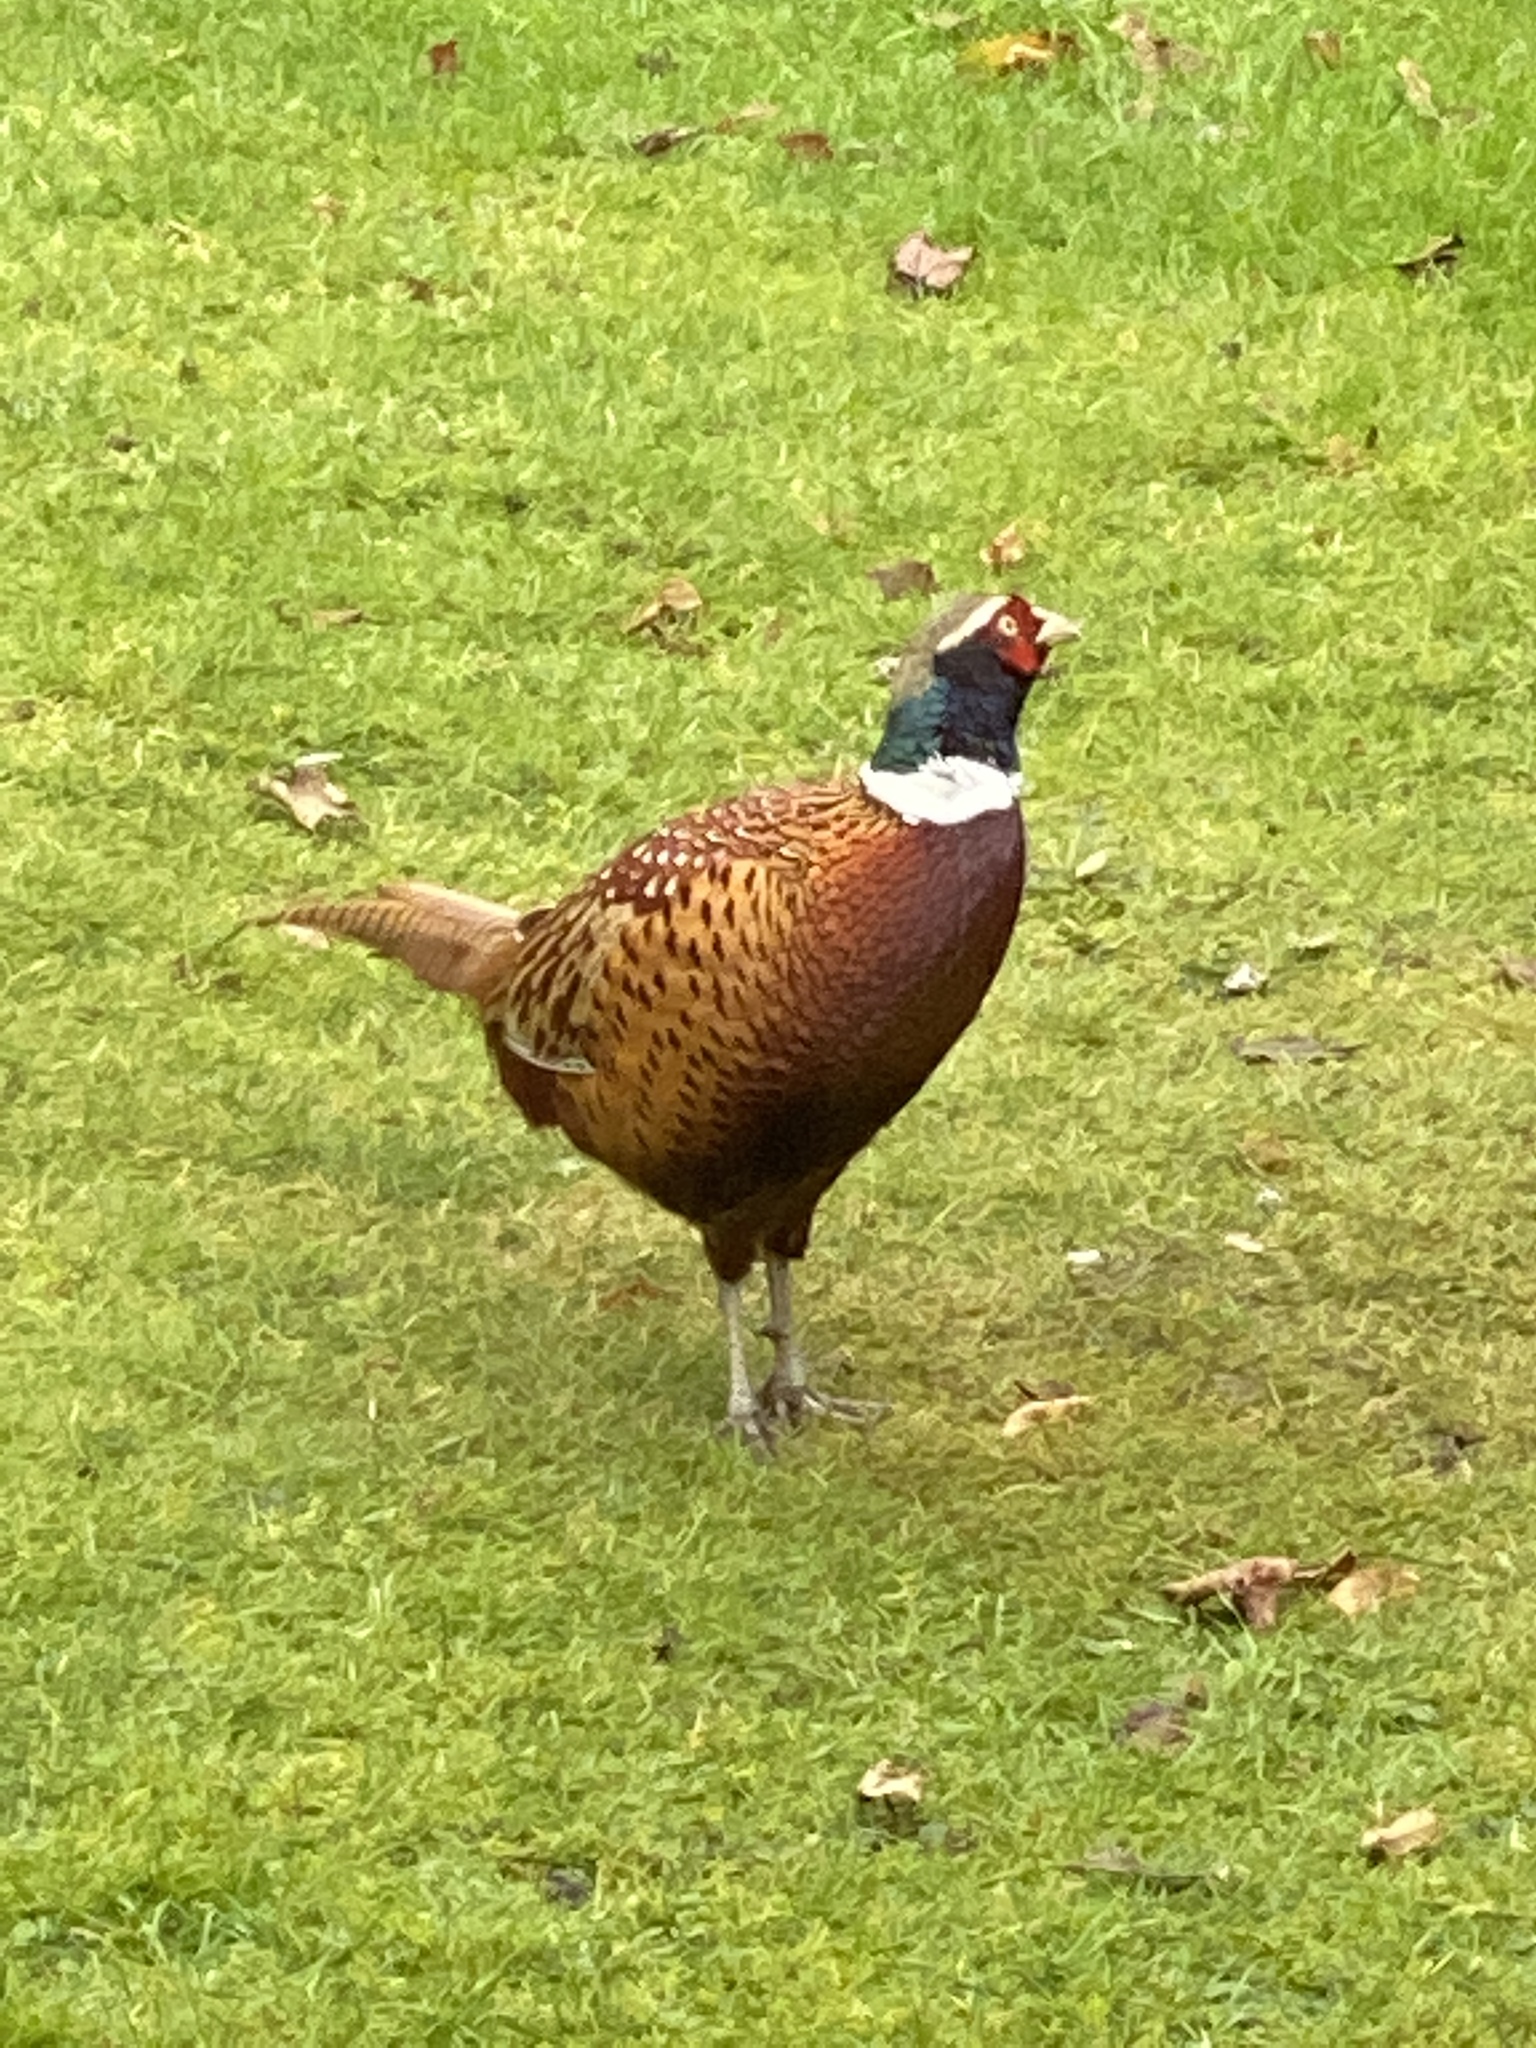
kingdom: Animalia
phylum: Chordata
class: Aves
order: Galliformes
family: Phasianidae
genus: Phasianus
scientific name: Phasianus colchicus
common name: Common pheasant
